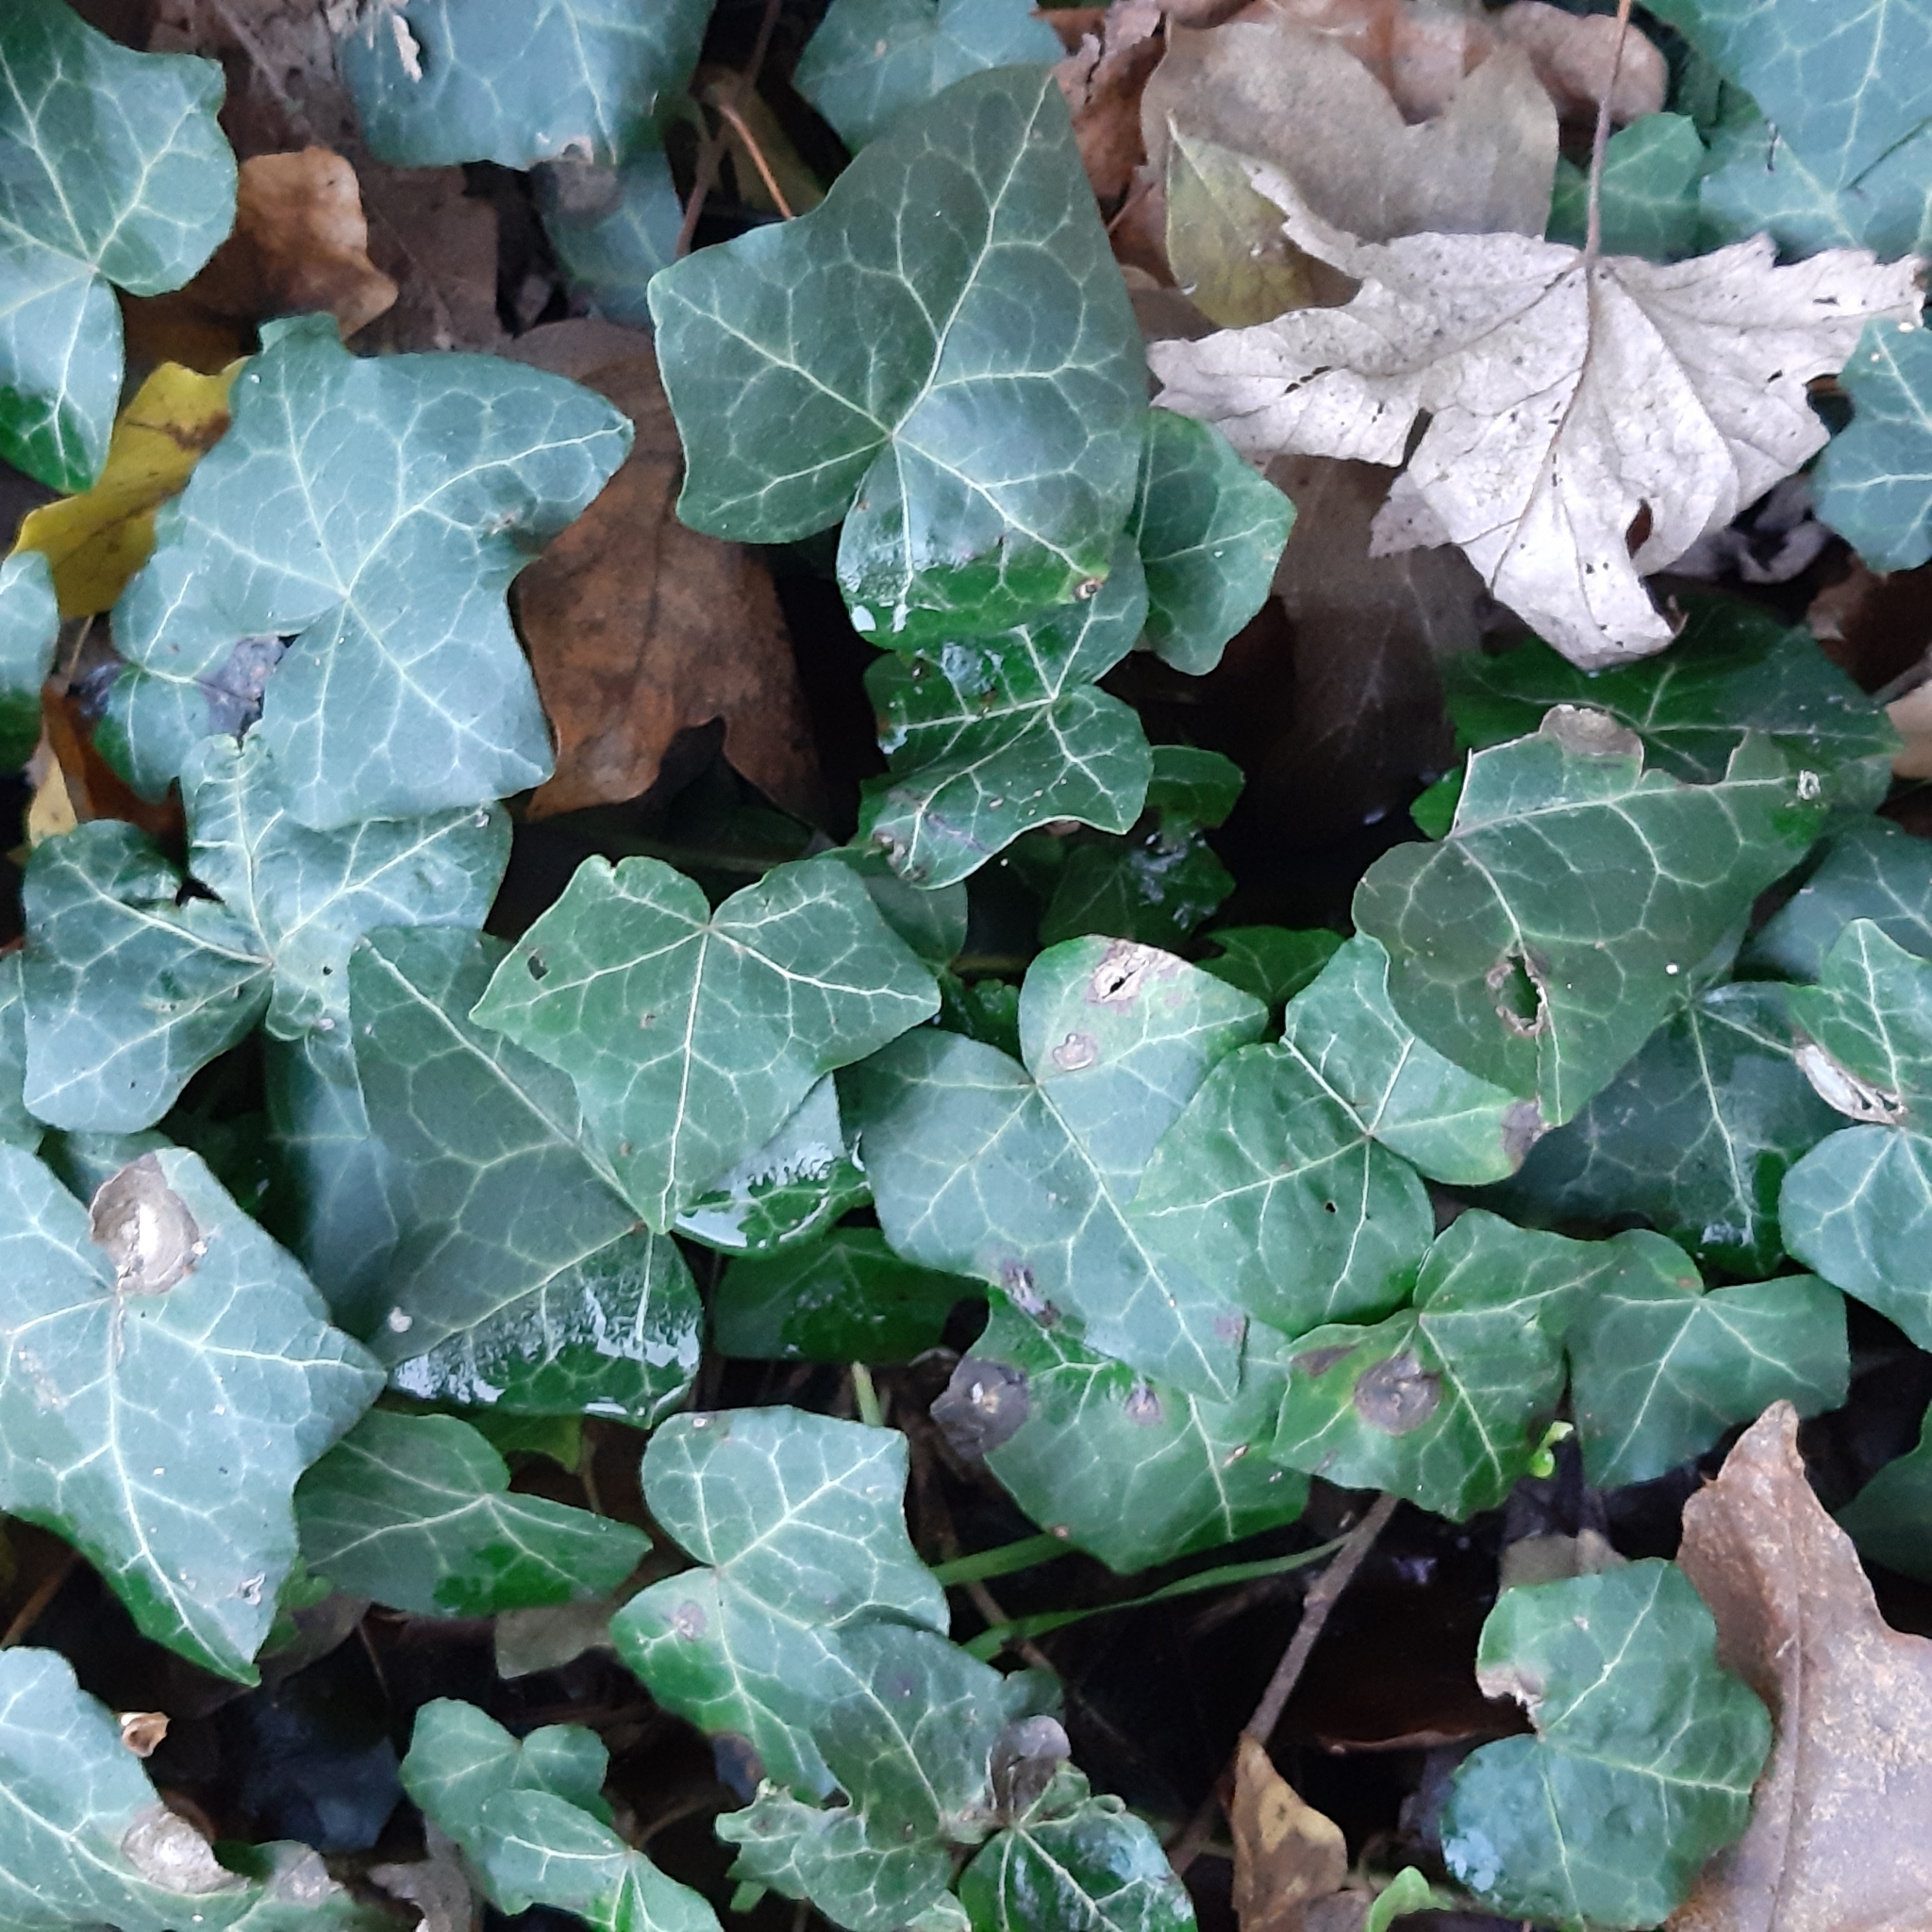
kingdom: Plantae
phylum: Tracheophyta
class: Magnoliopsida
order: Apiales
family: Araliaceae
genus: Hedera
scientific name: Hedera helix
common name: Ivy
